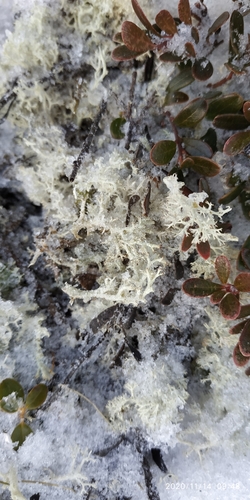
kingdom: Fungi
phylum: Ascomycota
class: Lecanoromycetes
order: Lecanorales
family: Cladoniaceae
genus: Cladonia
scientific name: Cladonia portentosa
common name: Reindeer lichen
